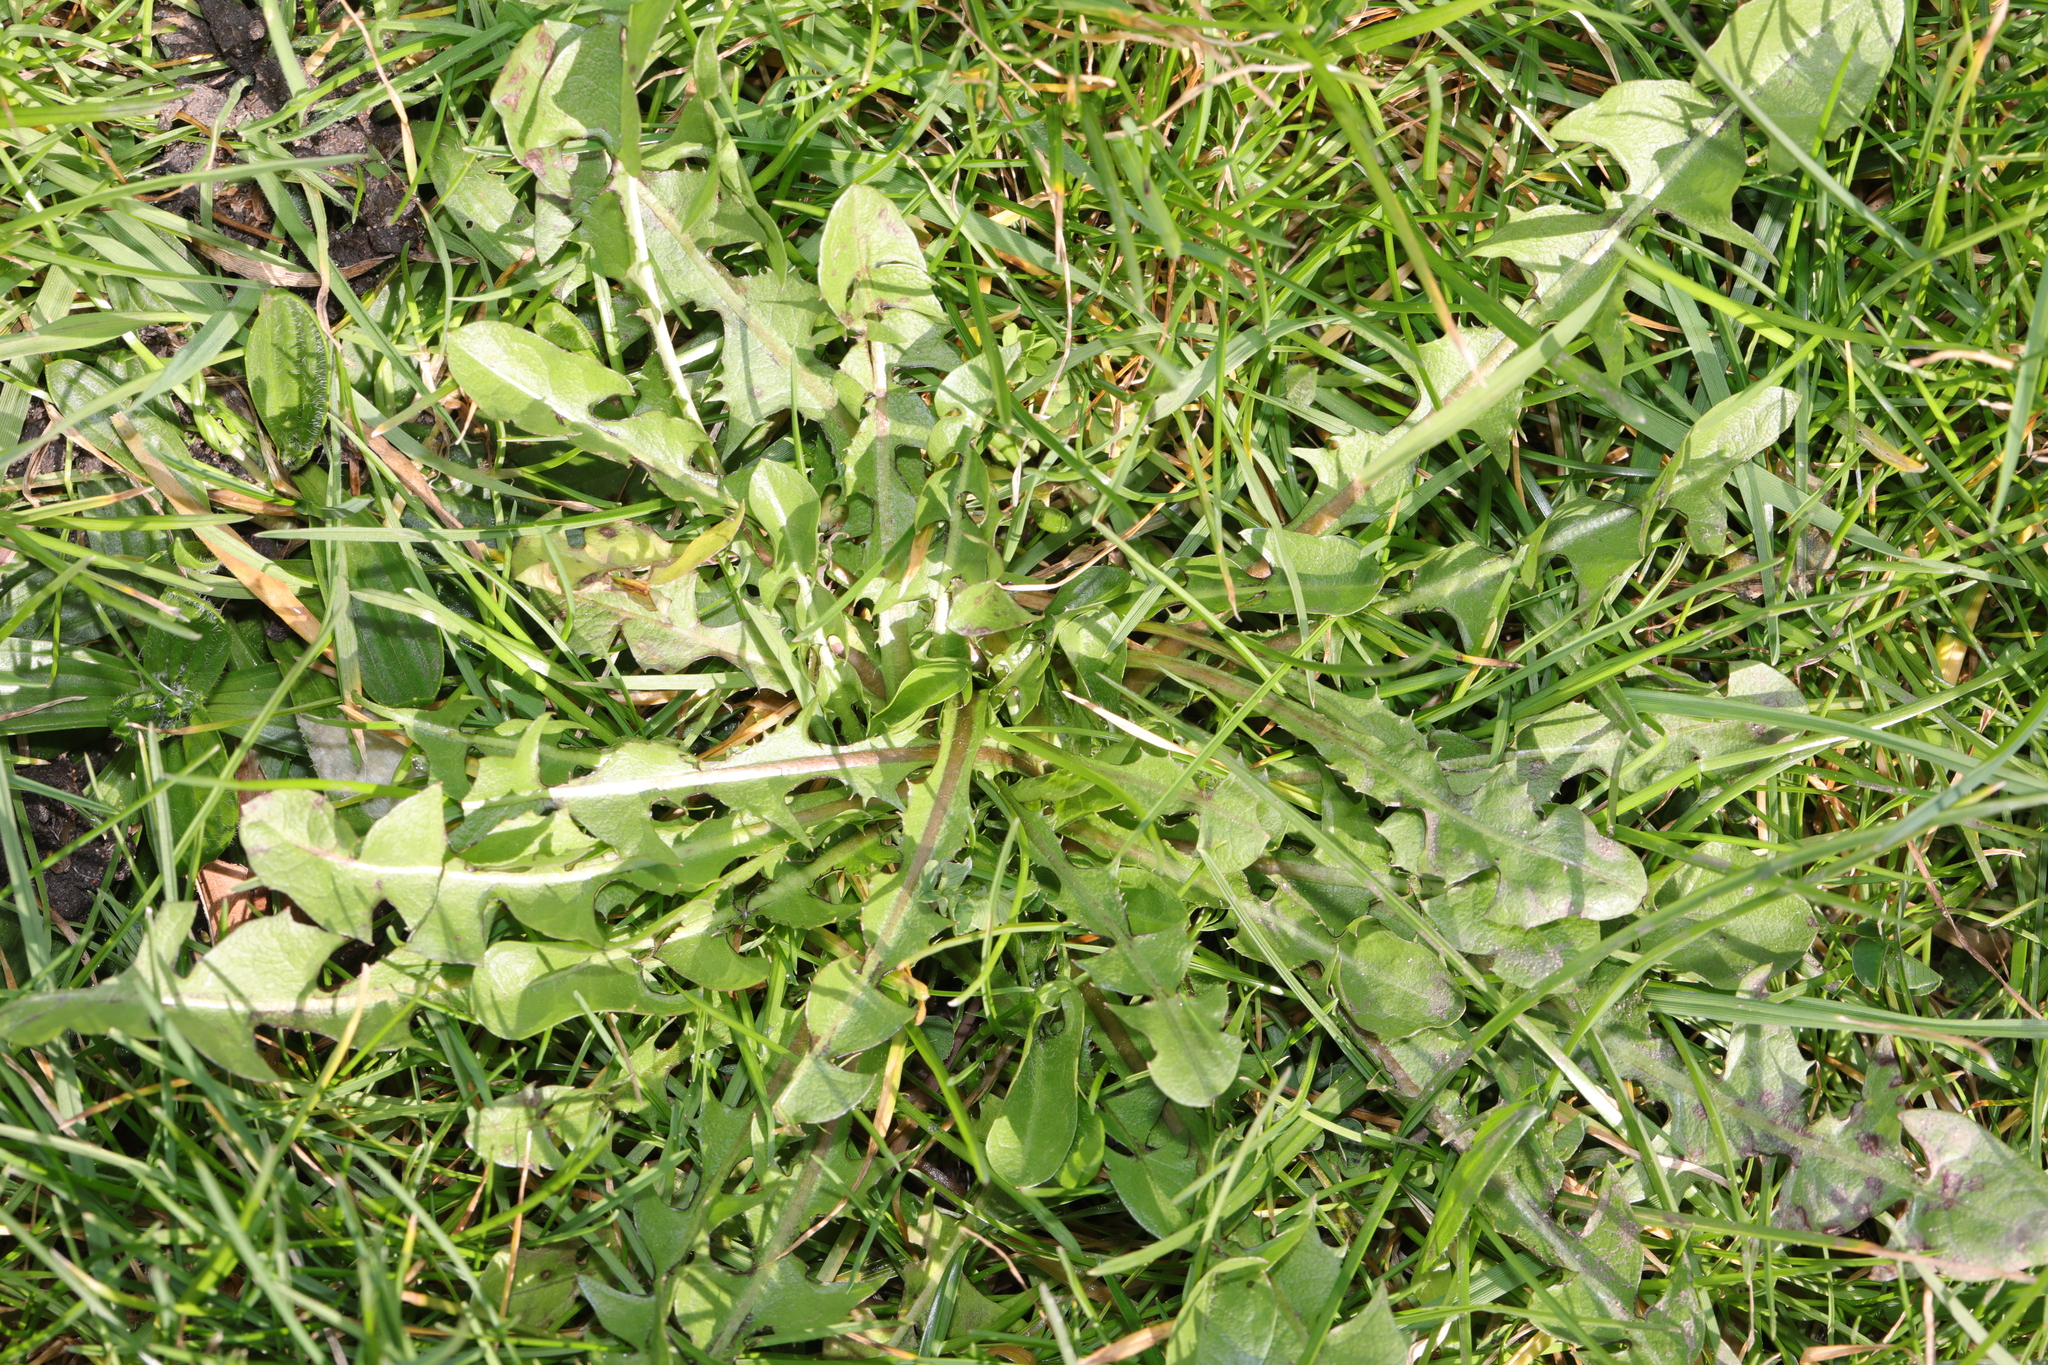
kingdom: Plantae
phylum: Tracheophyta
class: Magnoliopsida
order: Asterales
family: Asteraceae
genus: Taraxacum
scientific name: Taraxacum officinale
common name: Common dandelion
